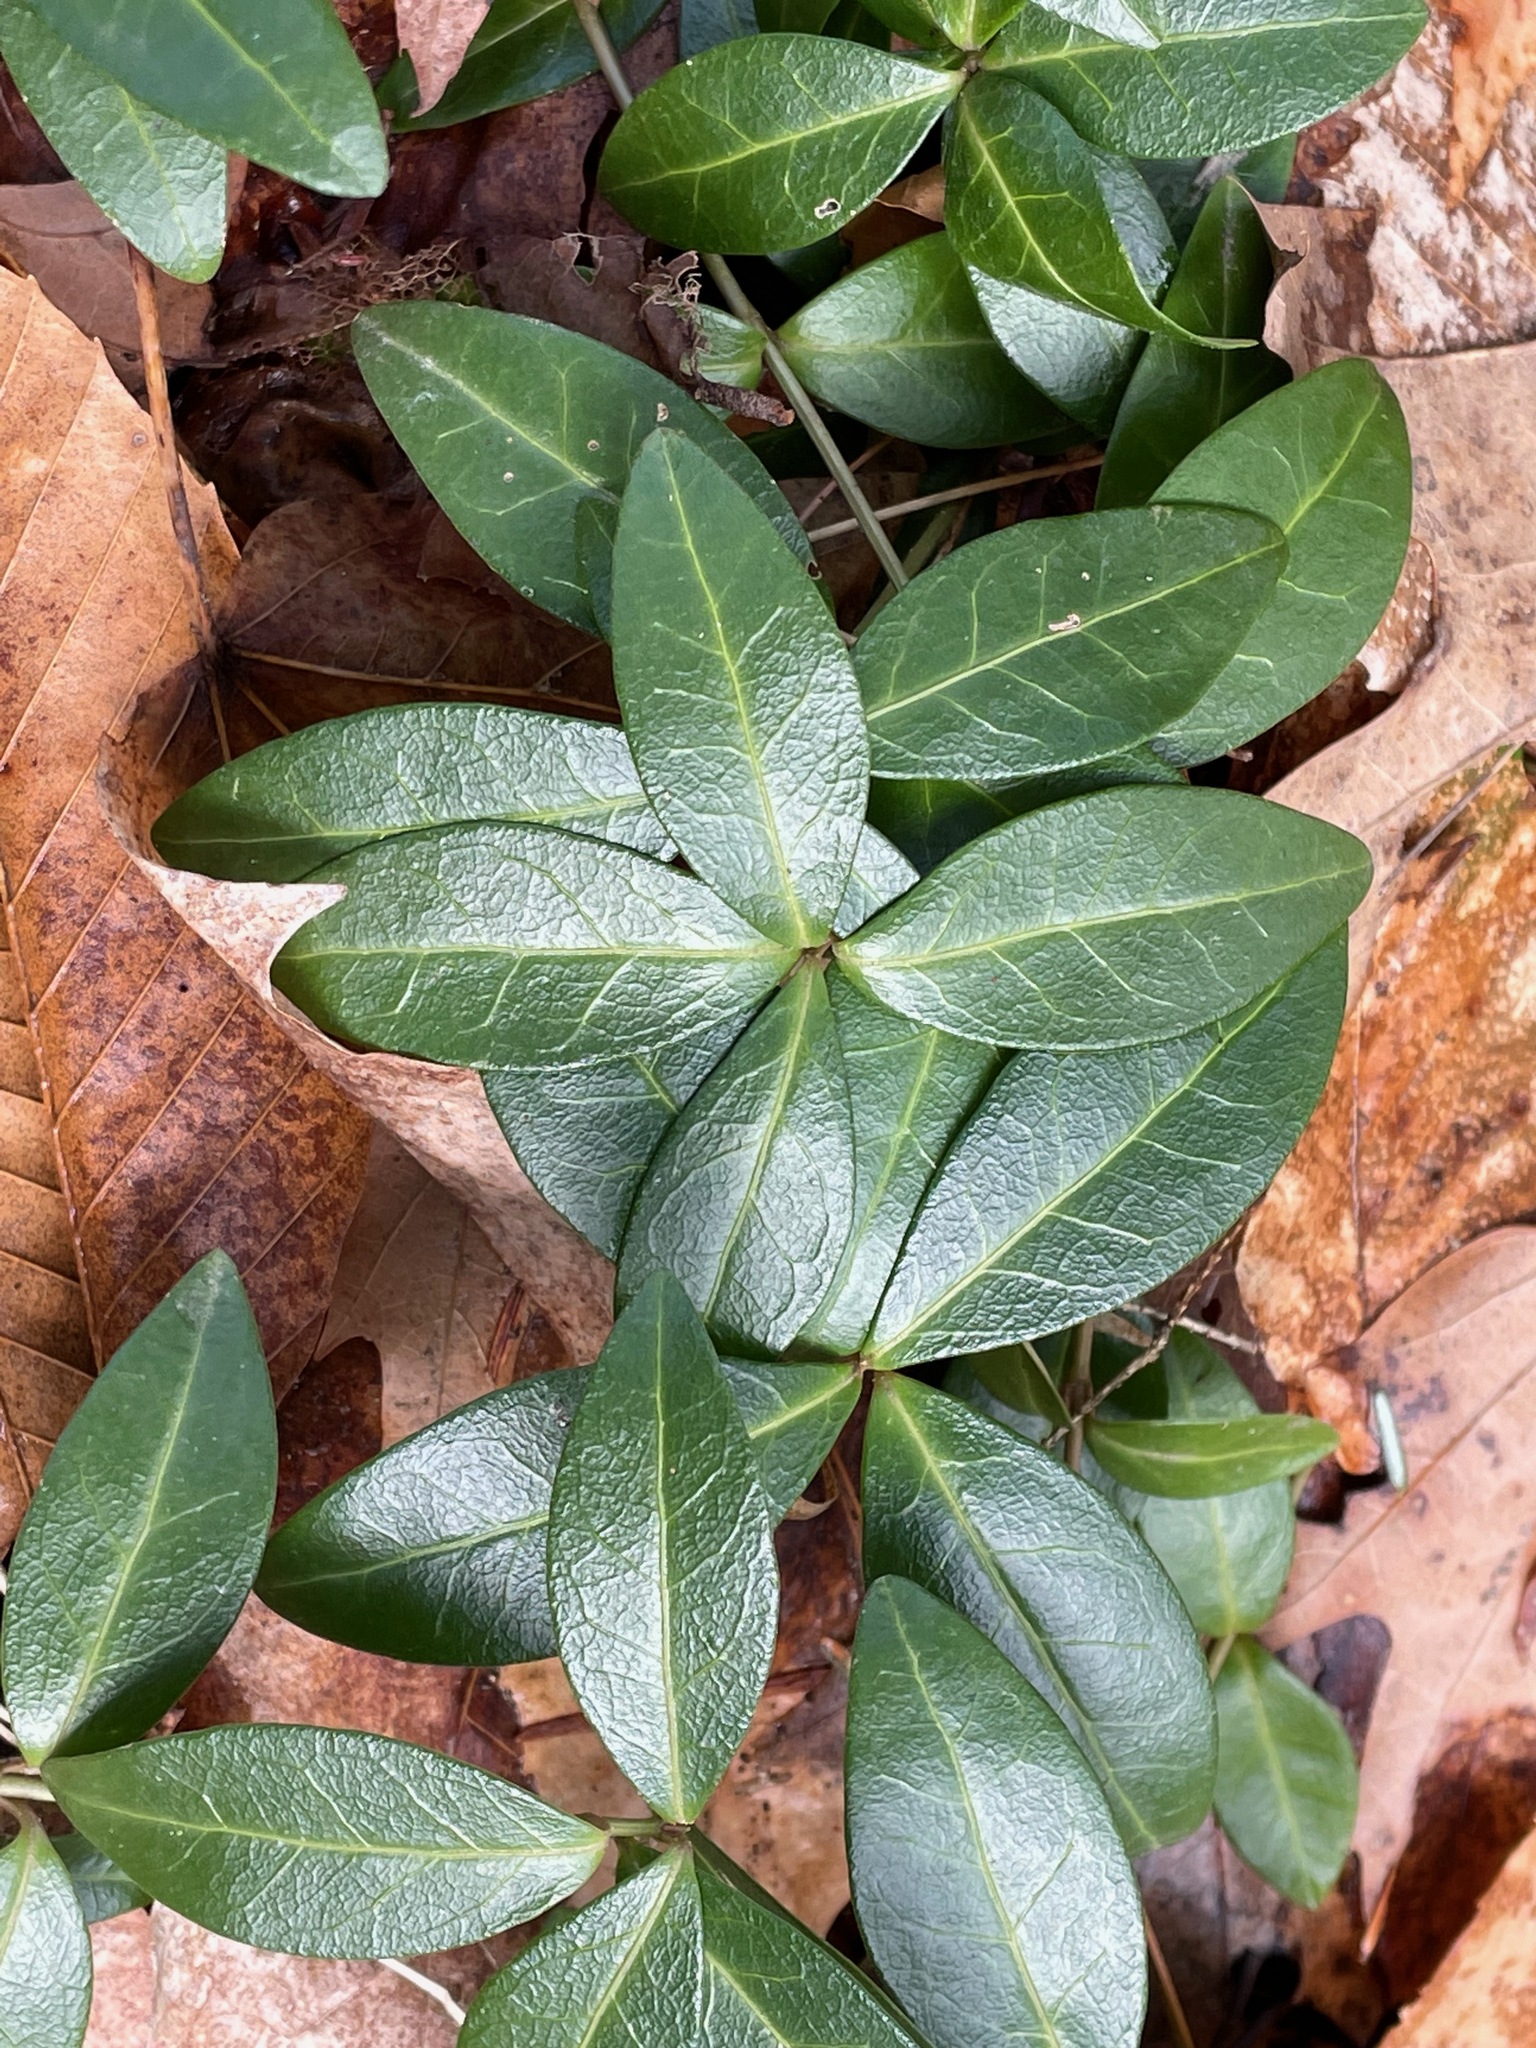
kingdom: Plantae
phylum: Tracheophyta
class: Magnoliopsida
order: Gentianales
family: Apocynaceae
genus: Vinca
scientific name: Vinca minor
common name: Lesser periwinkle
